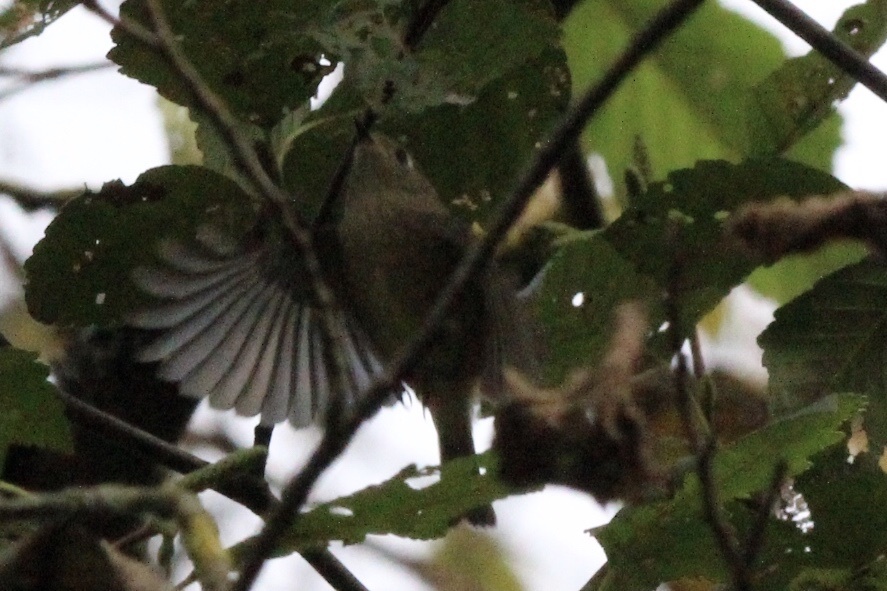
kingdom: Animalia
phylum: Chordata
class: Aves
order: Passeriformes
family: Regulidae
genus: Regulus
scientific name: Regulus calendula
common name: Ruby-crowned kinglet
